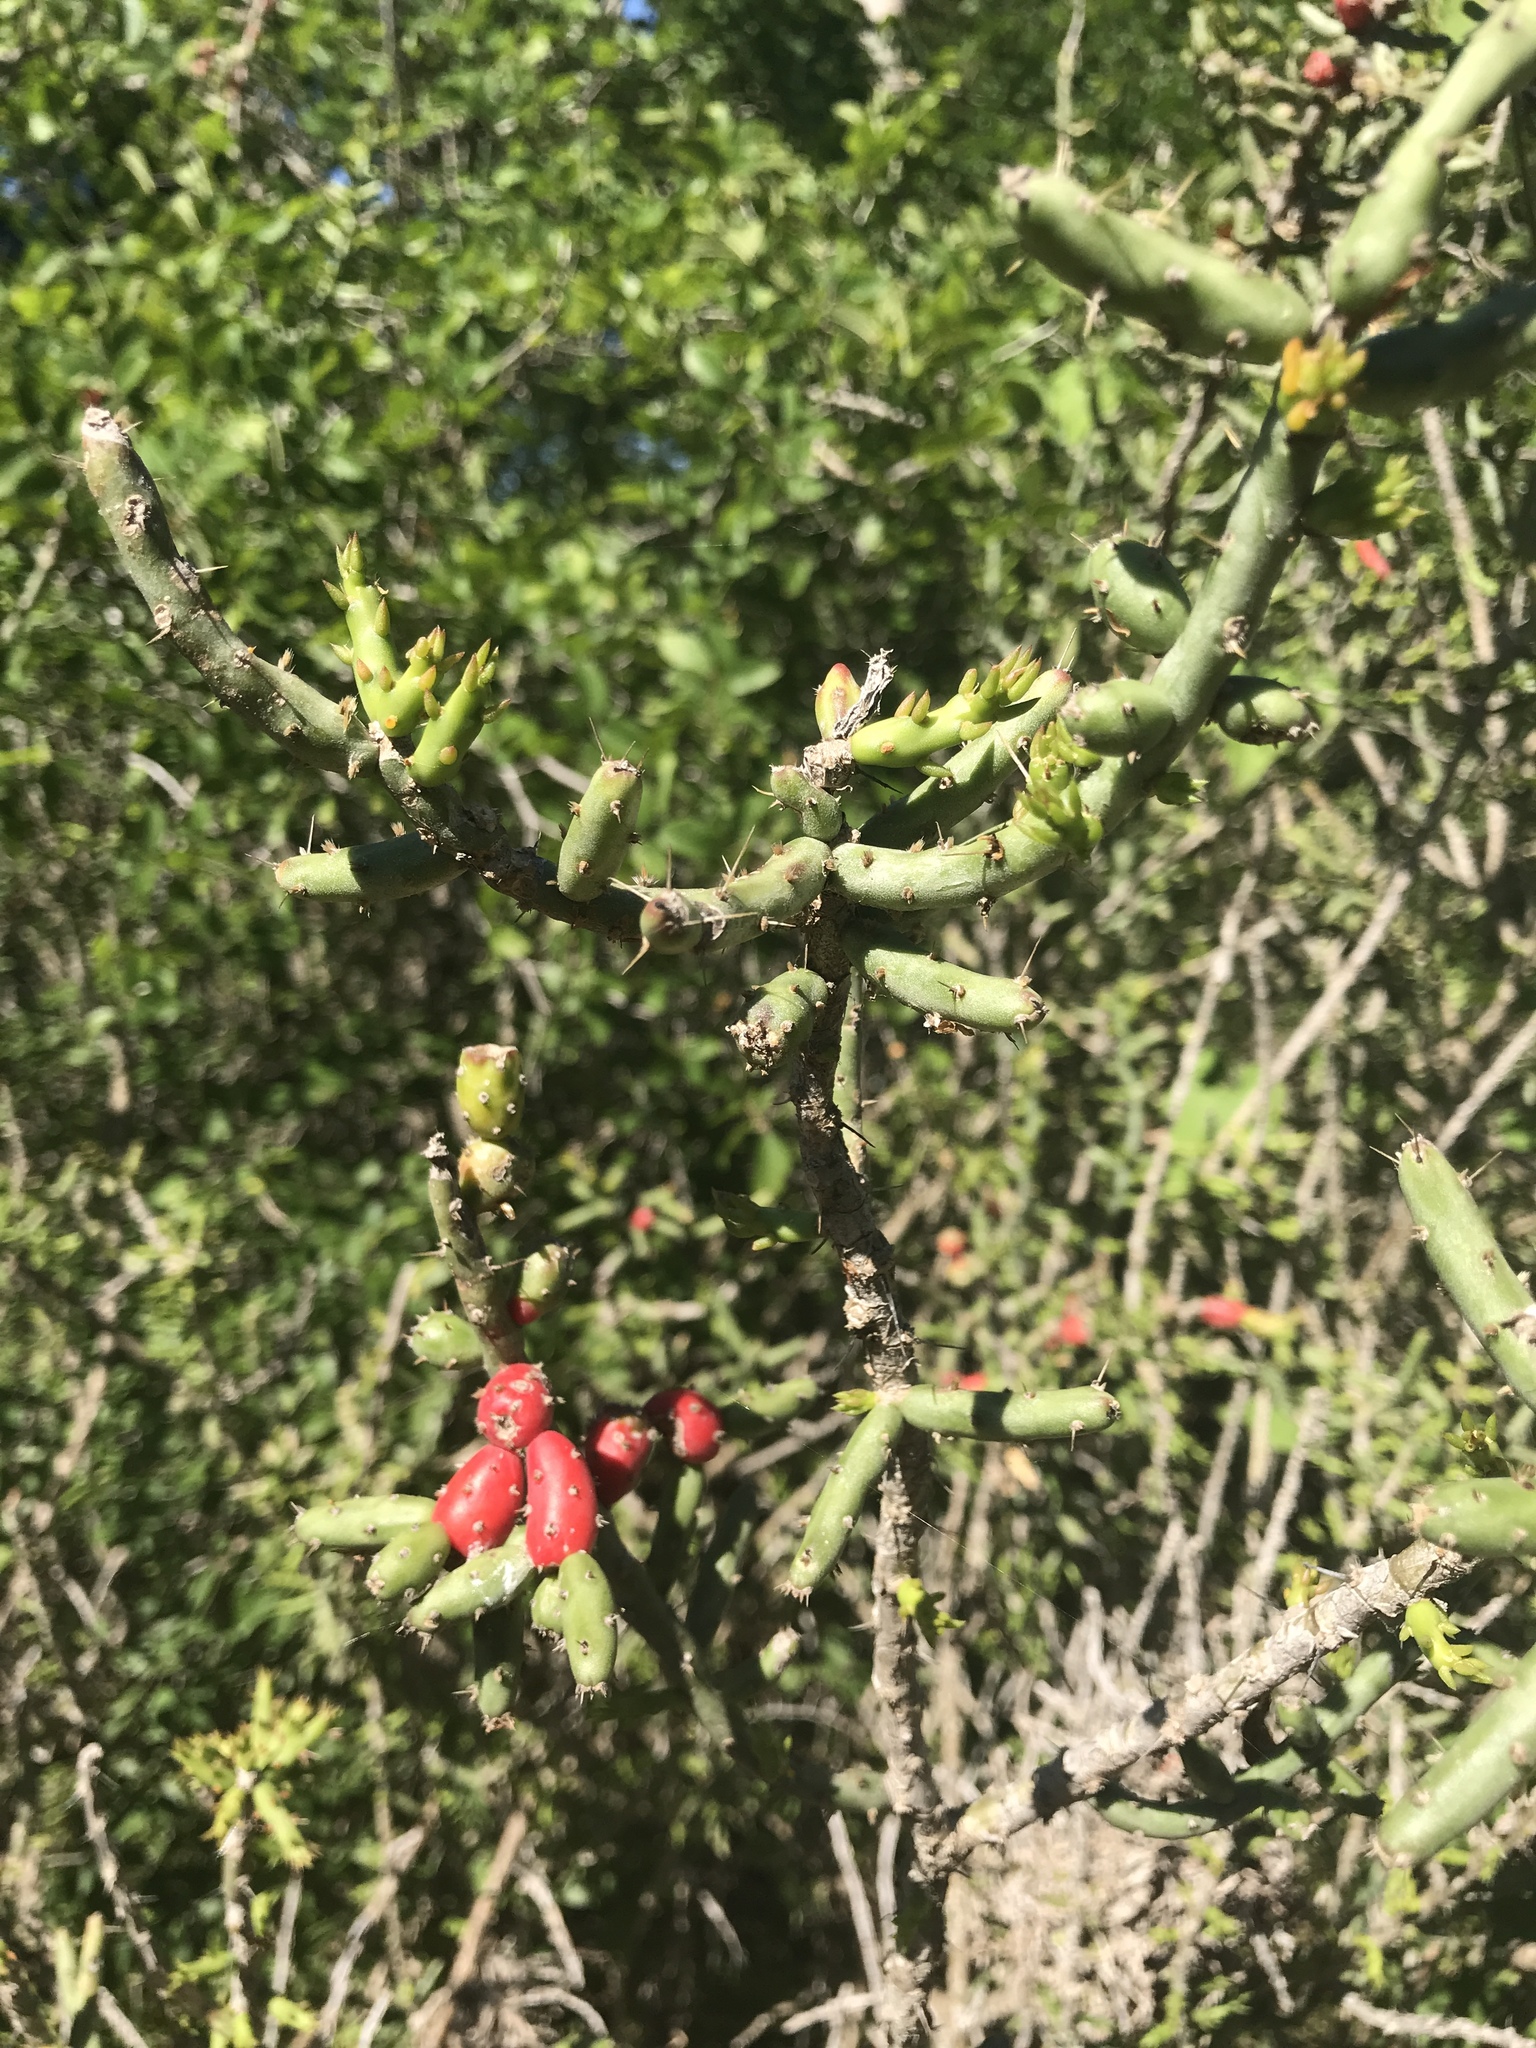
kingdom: Plantae
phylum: Tracheophyta
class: Magnoliopsida
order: Caryophyllales
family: Cactaceae
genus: Cylindropuntia
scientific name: Cylindropuntia leptocaulis
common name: Christmas cactus
